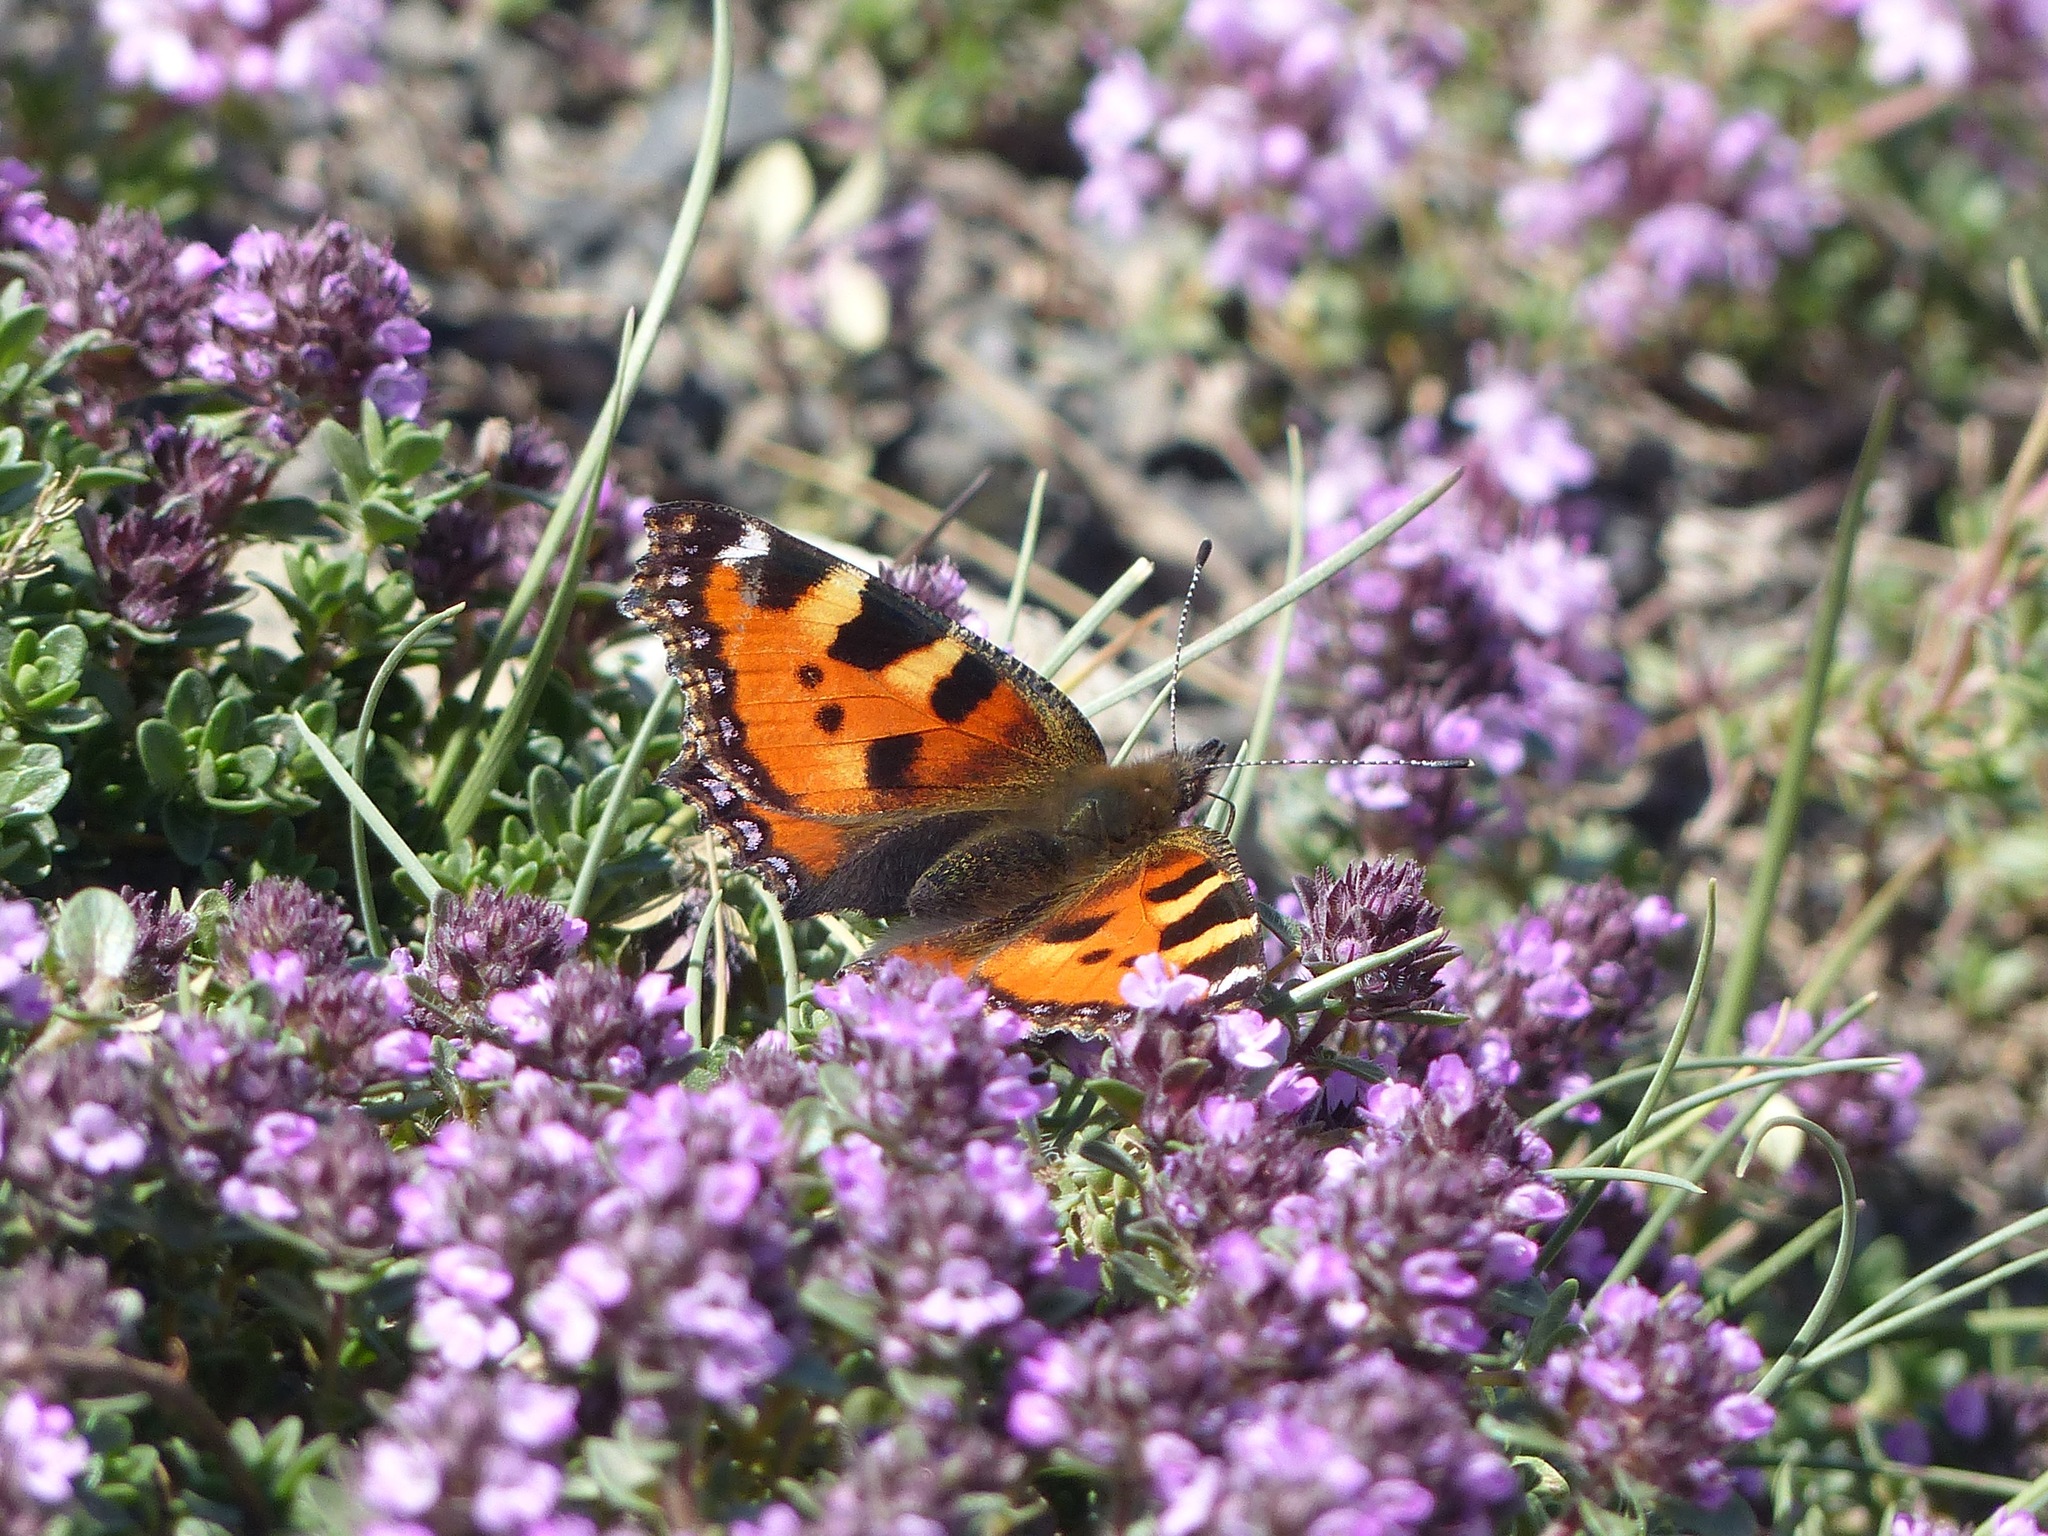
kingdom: Animalia
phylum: Arthropoda
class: Insecta
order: Lepidoptera
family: Nymphalidae
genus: Aglais
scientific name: Aglais urticae
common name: Small tortoiseshell
